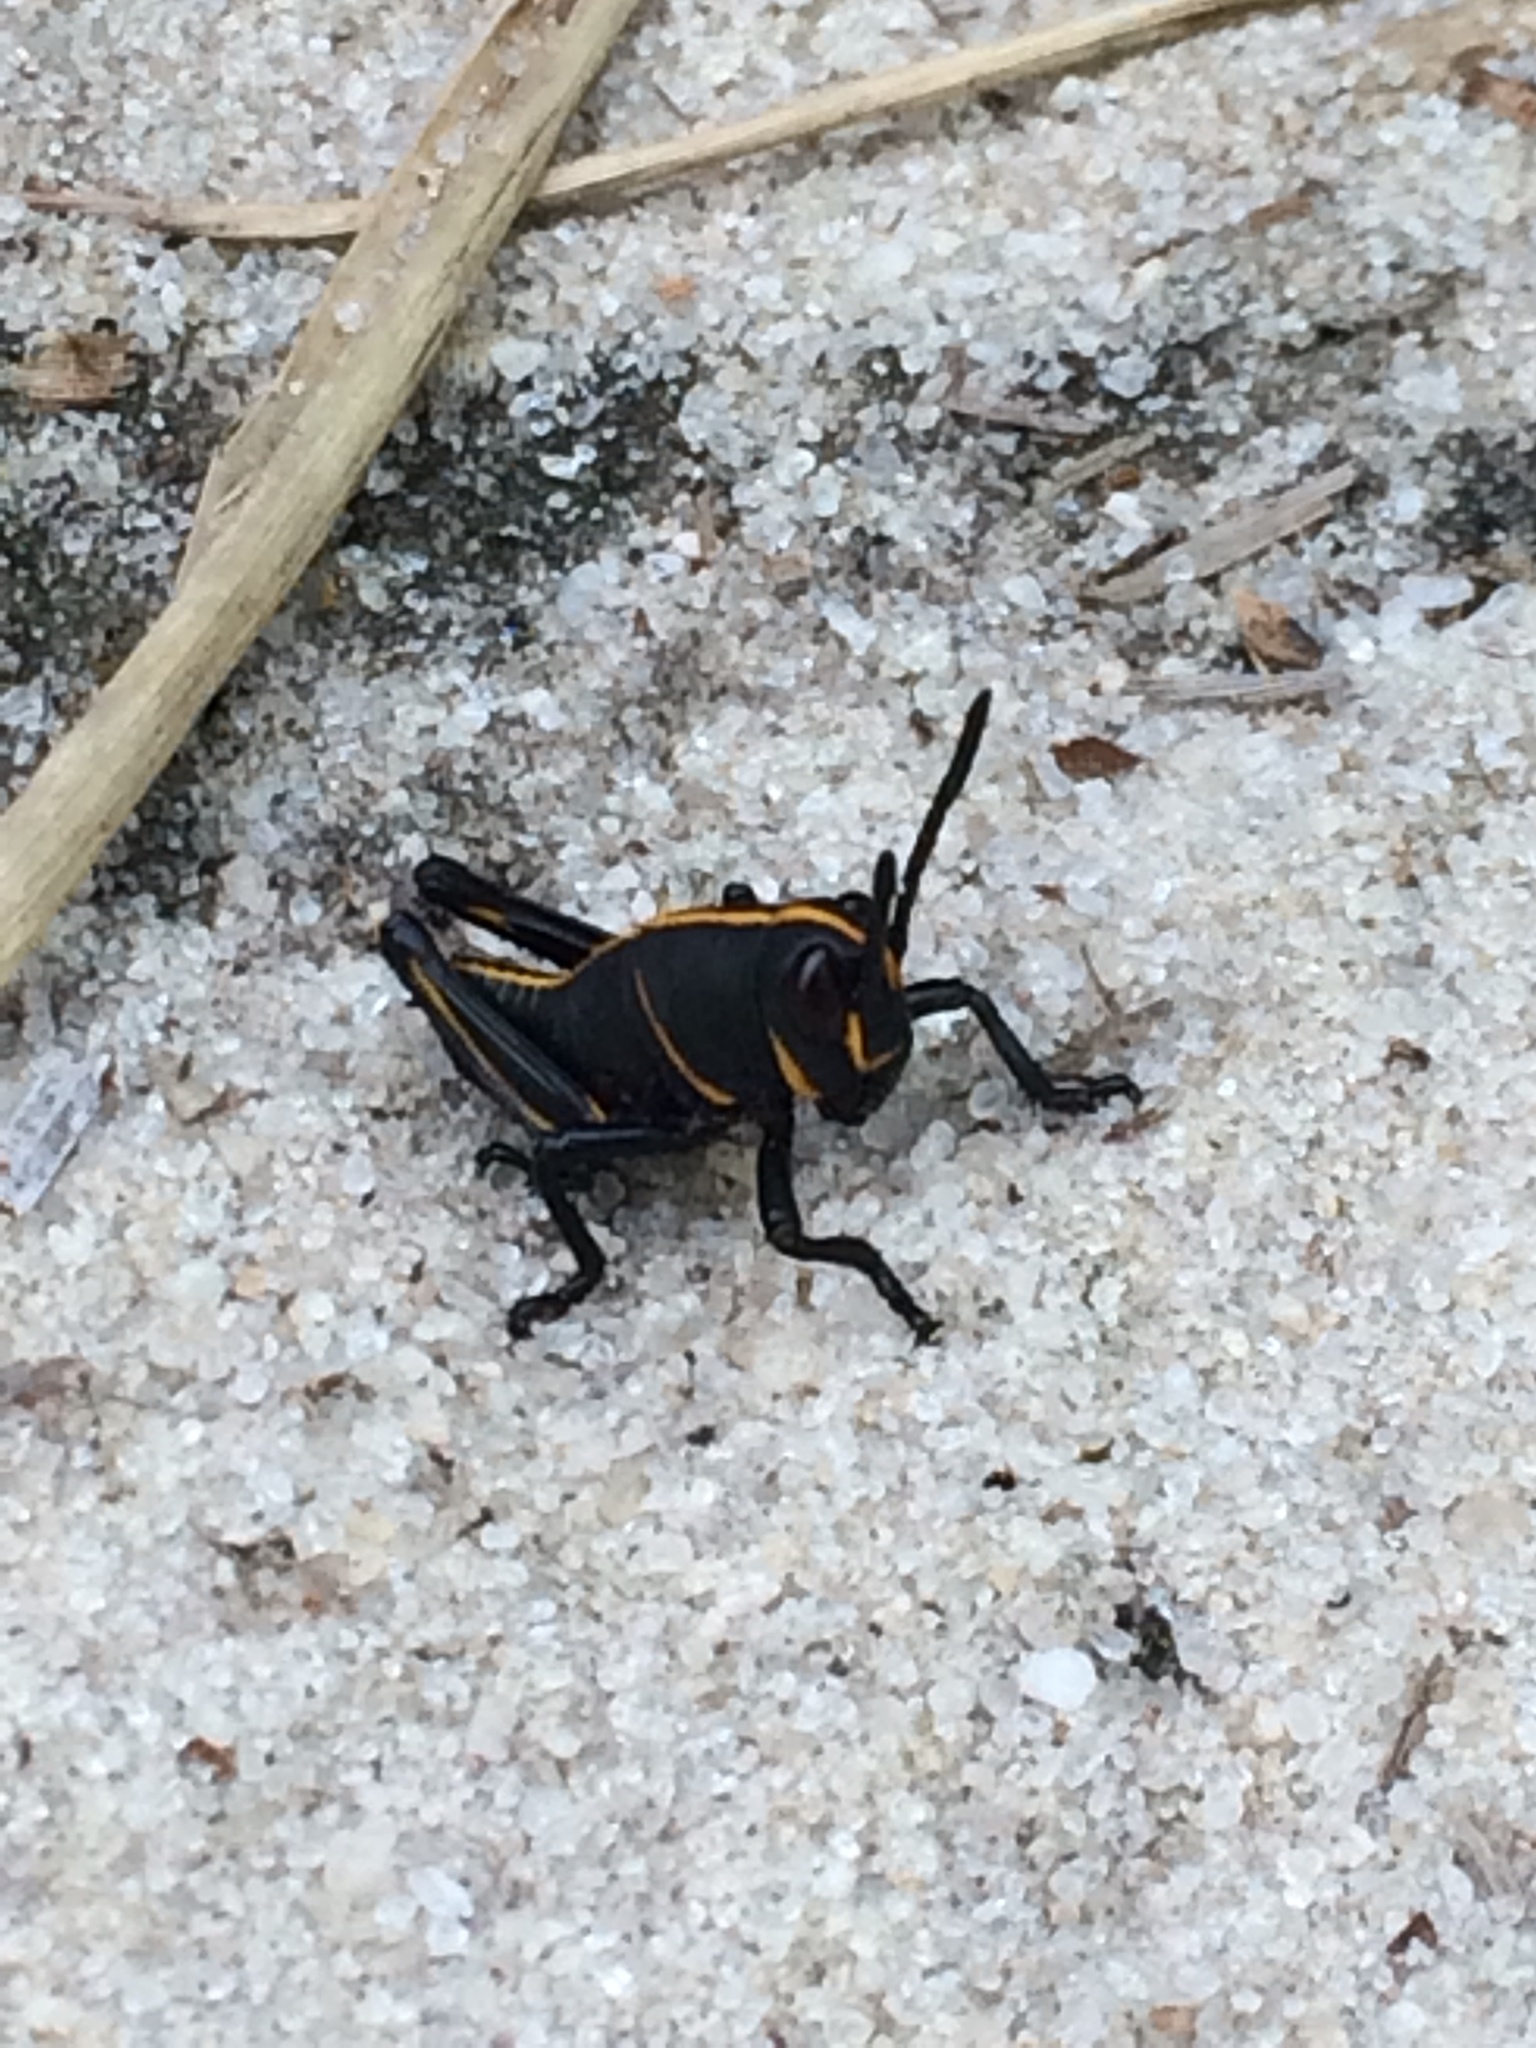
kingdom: Animalia
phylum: Arthropoda
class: Insecta
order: Orthoptera
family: Romaleidae
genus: Romalea
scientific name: Romalea microptera
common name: Eastern lubber grasshopper
